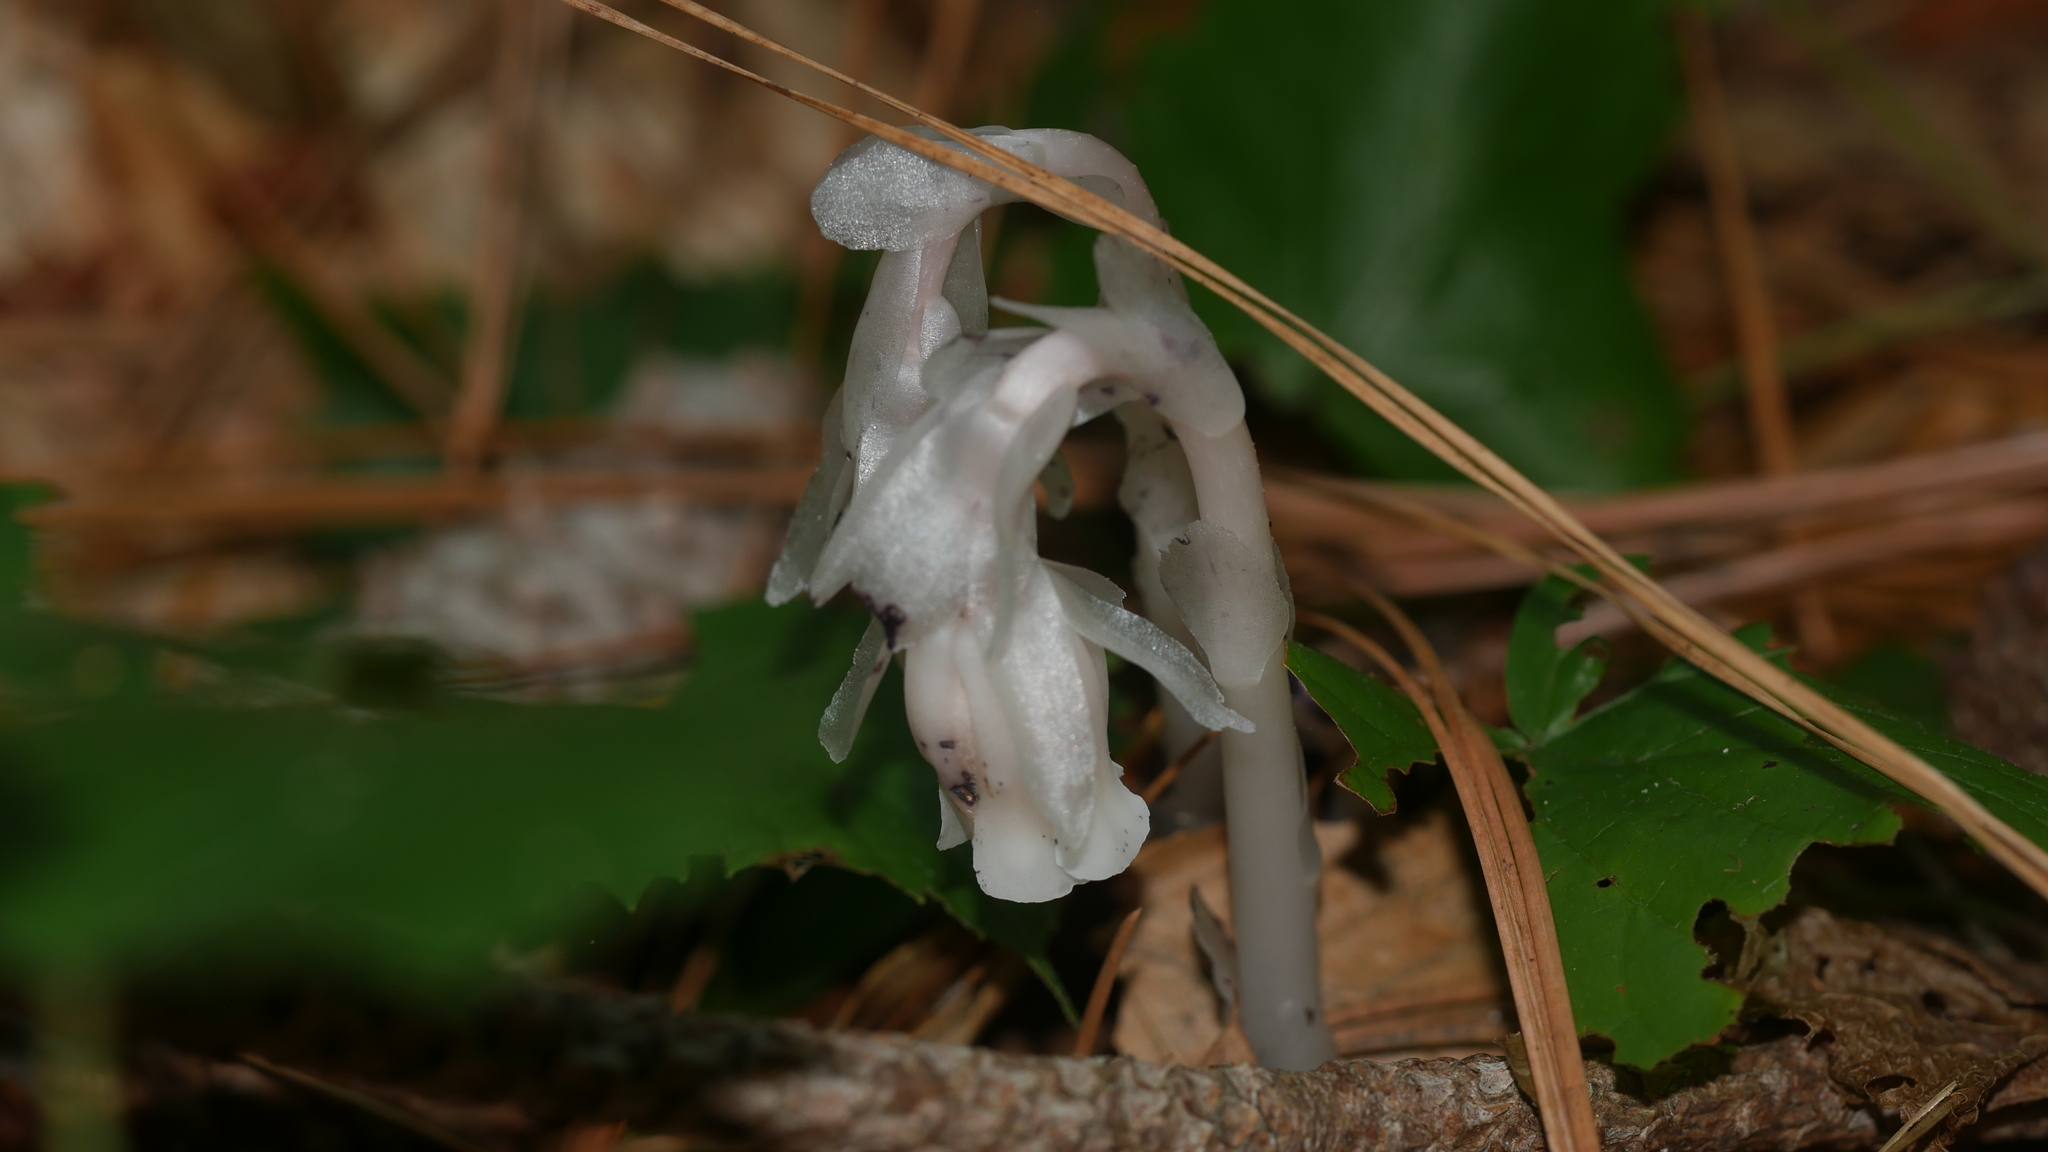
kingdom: Plantae
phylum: Tracheophyta
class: Magnoliopsida
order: Ericales
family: Ericaceae
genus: Monotropa
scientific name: Monotropa uniflora
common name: Convulsion root
